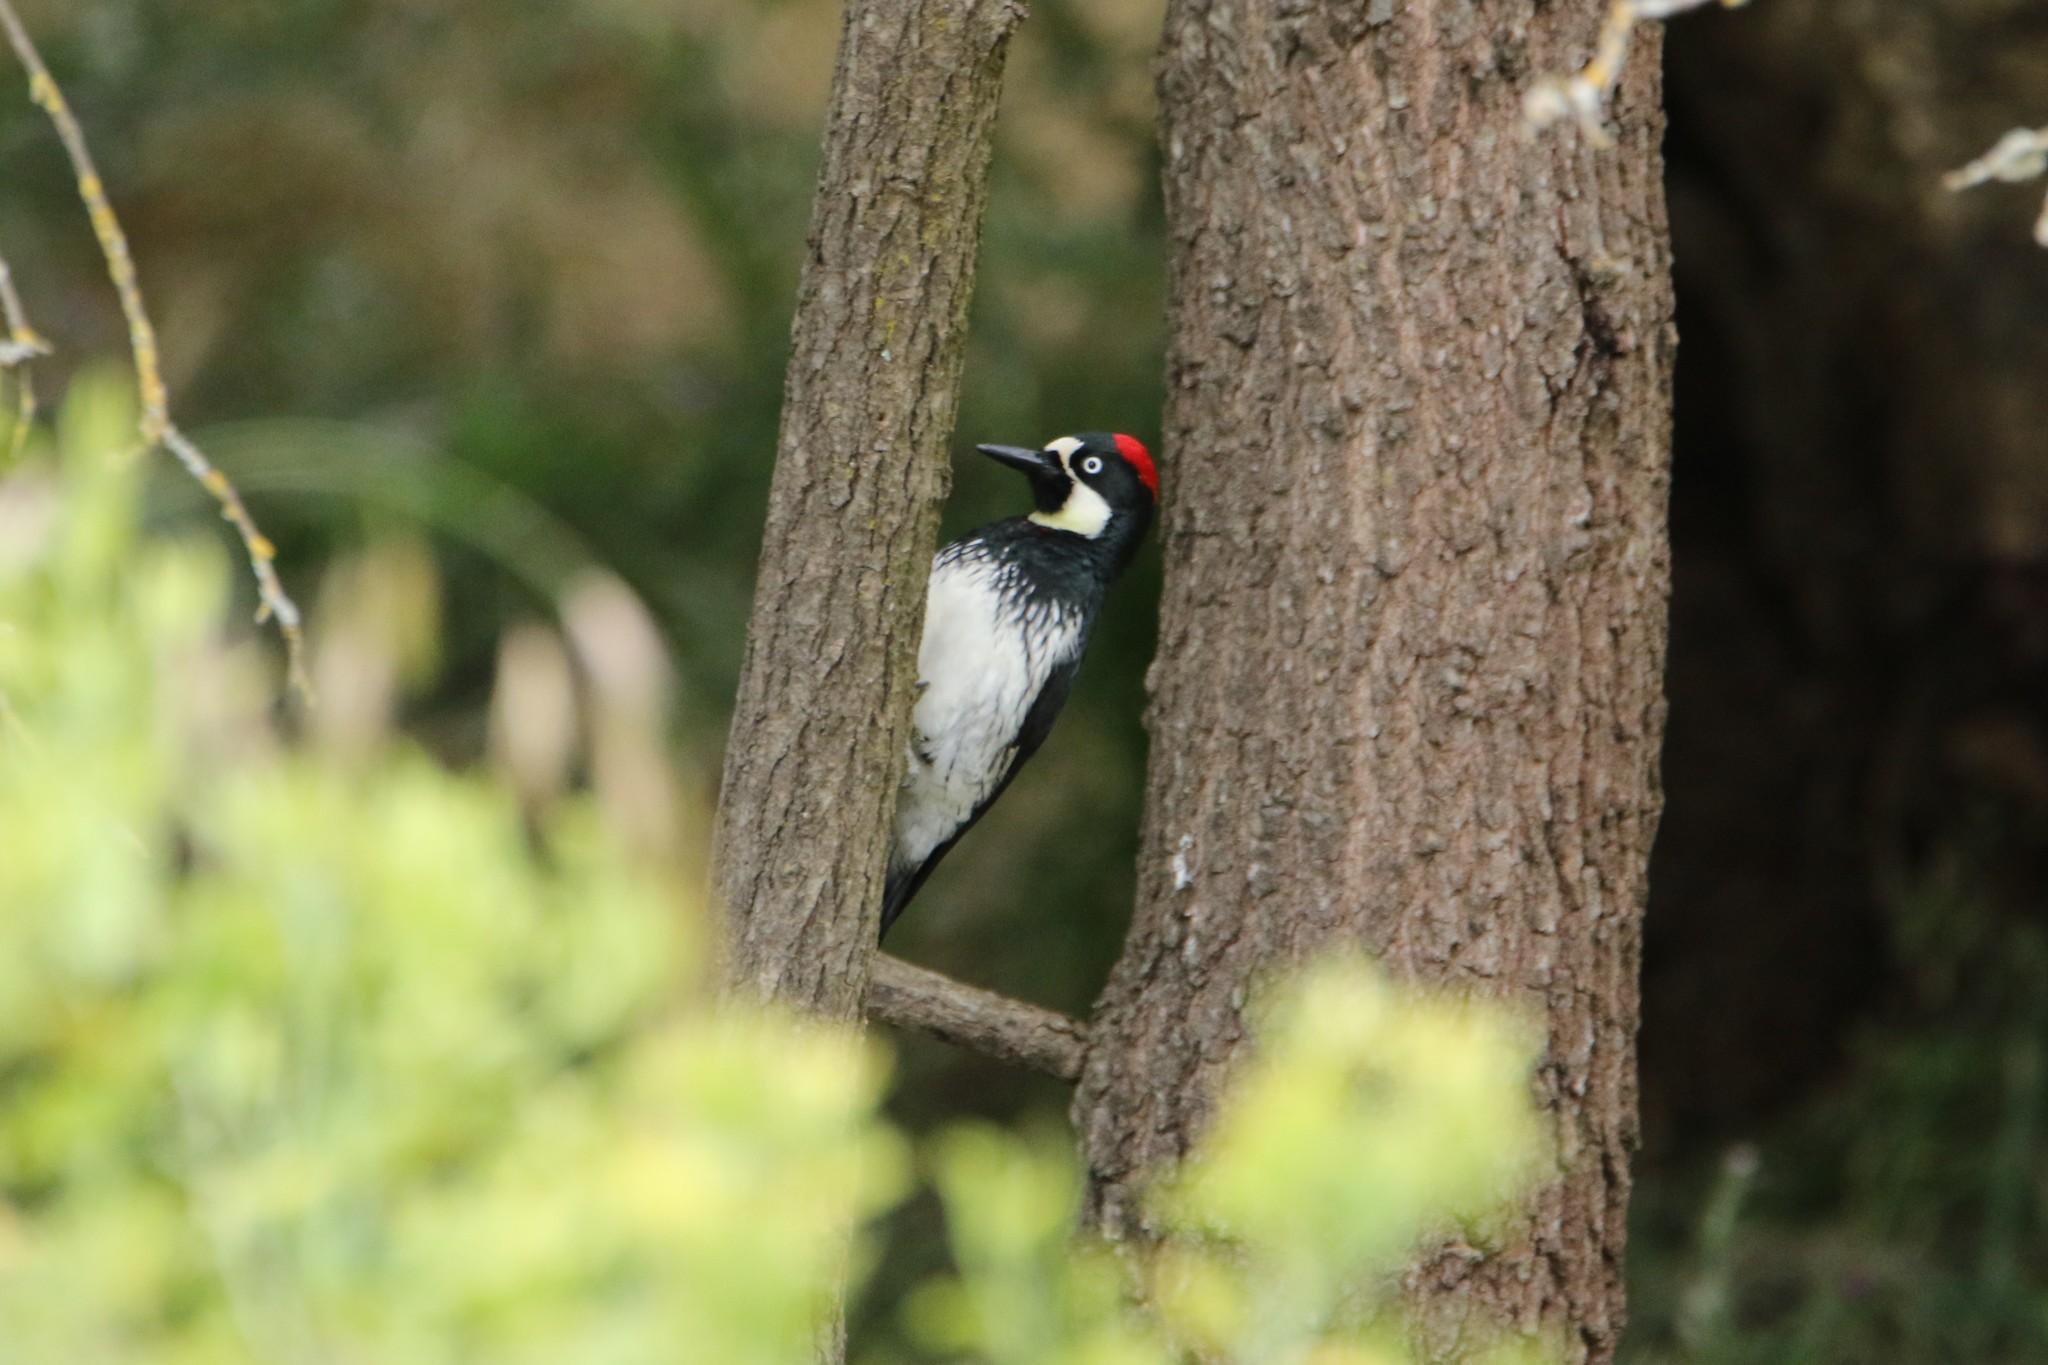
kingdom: Animalia
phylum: Chordata
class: Aves
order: Piciformes
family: Picidae
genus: Melanerpes
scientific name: Melanerpes formicivorus
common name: Acorn woodpecker
